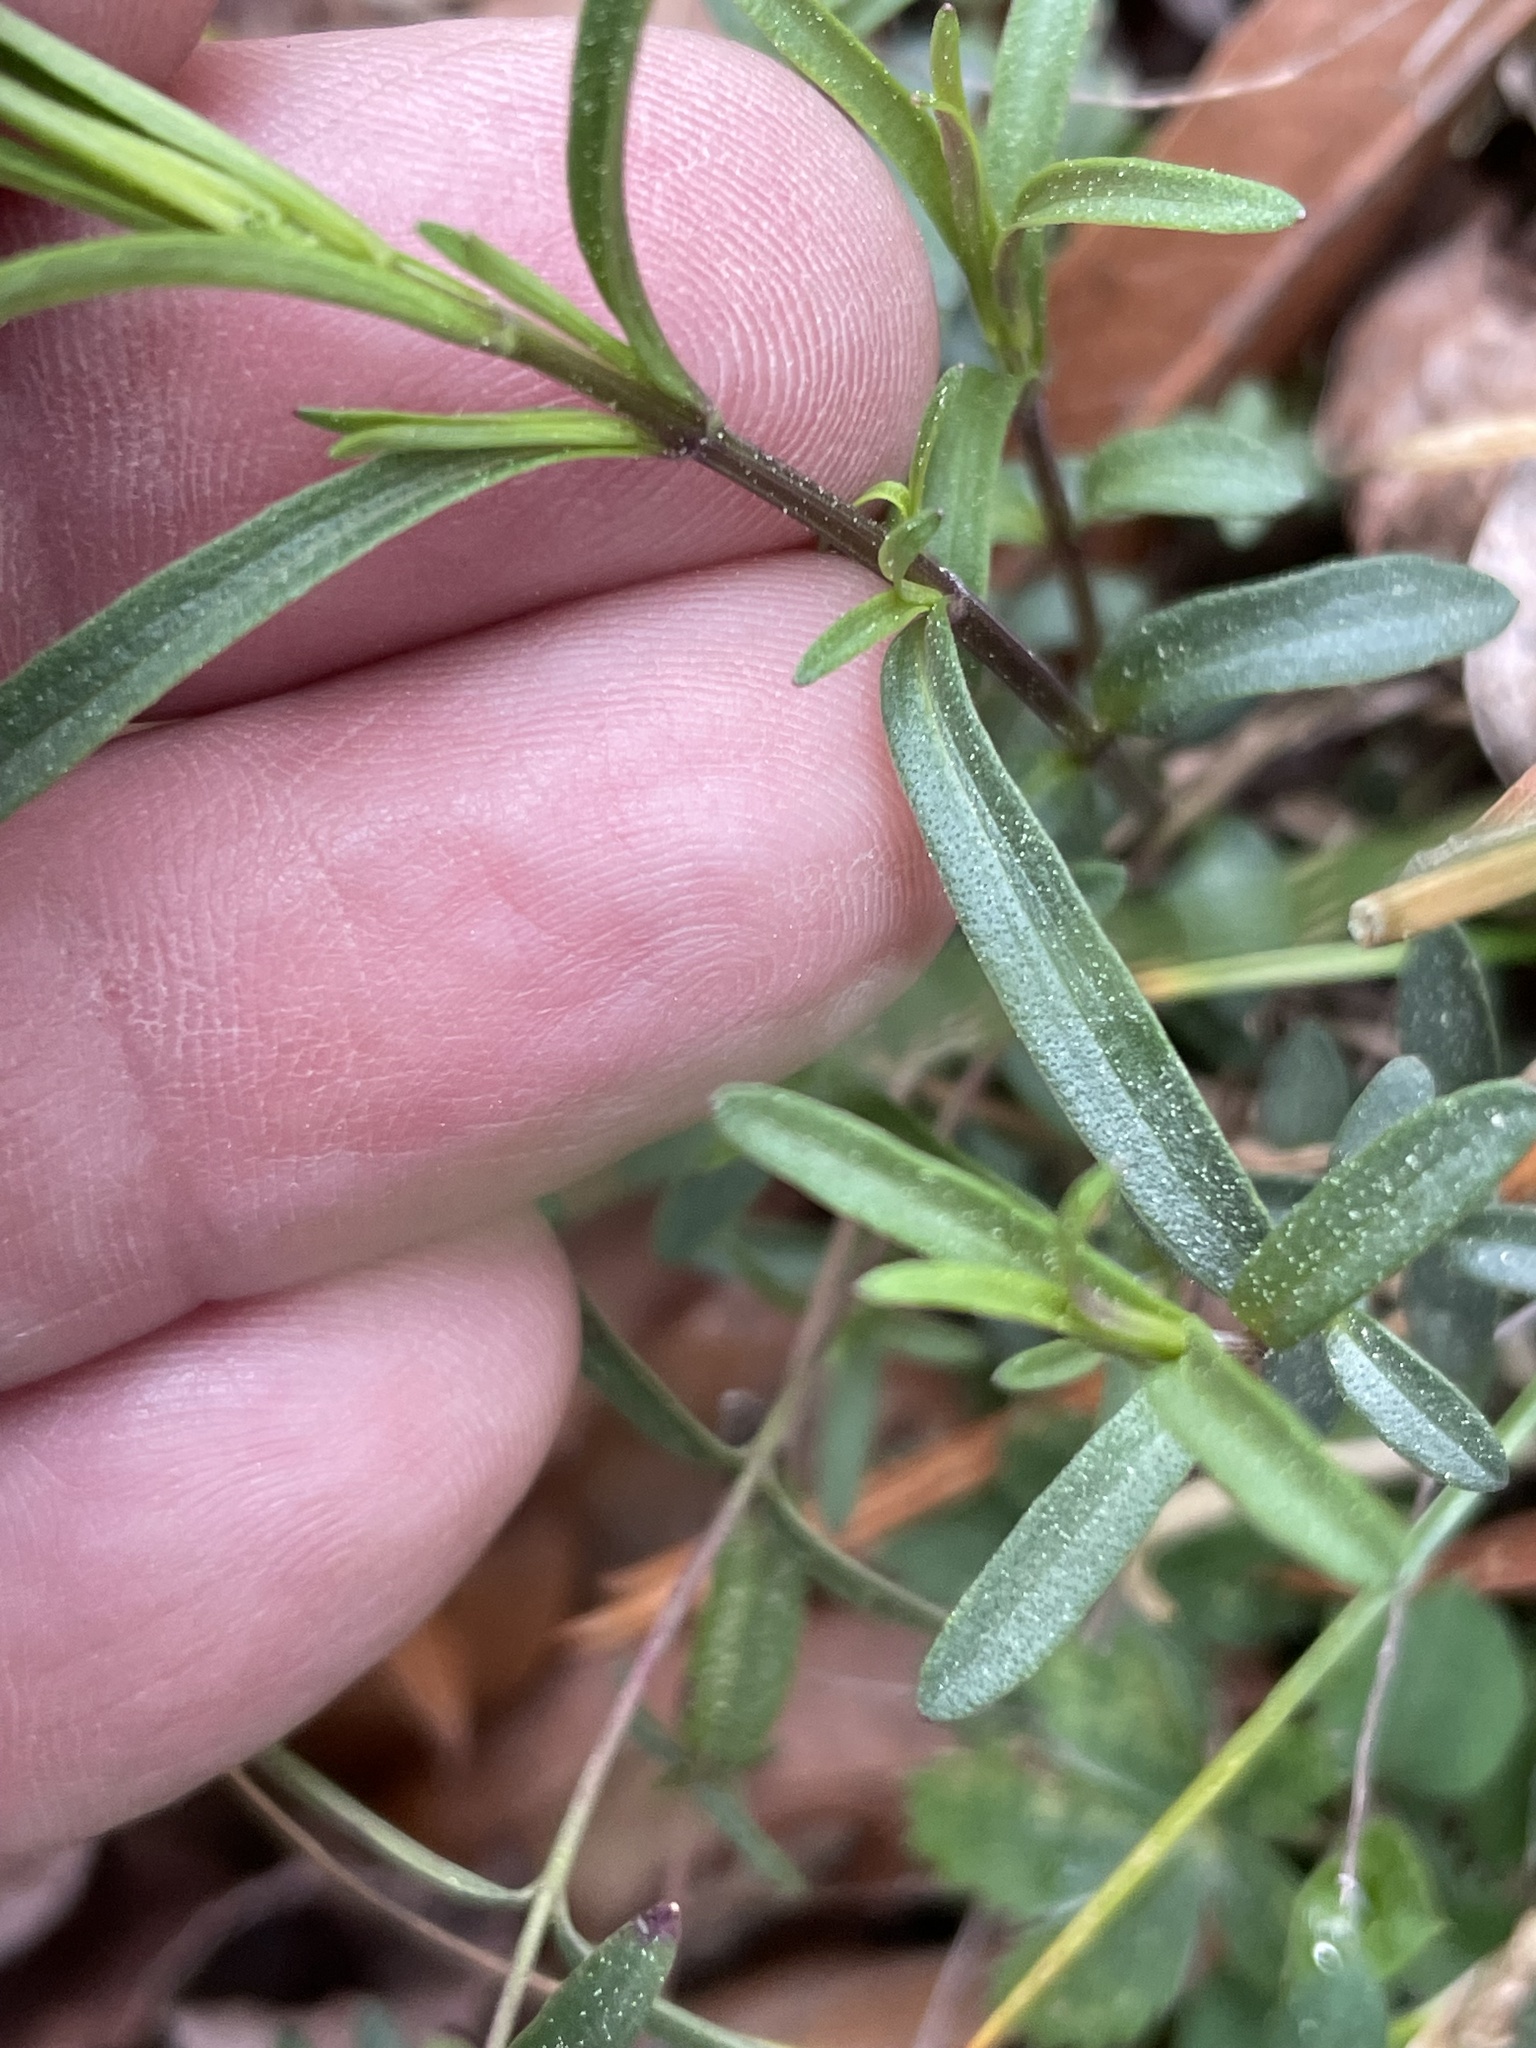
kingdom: Plantae
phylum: Tracheophyta
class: Magnoliopsida
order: Lamiales
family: Lamiaceae
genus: Pycnanthemum
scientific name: Pycnanthemum tenuifolium
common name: Narrow-leaf mountain-mint
